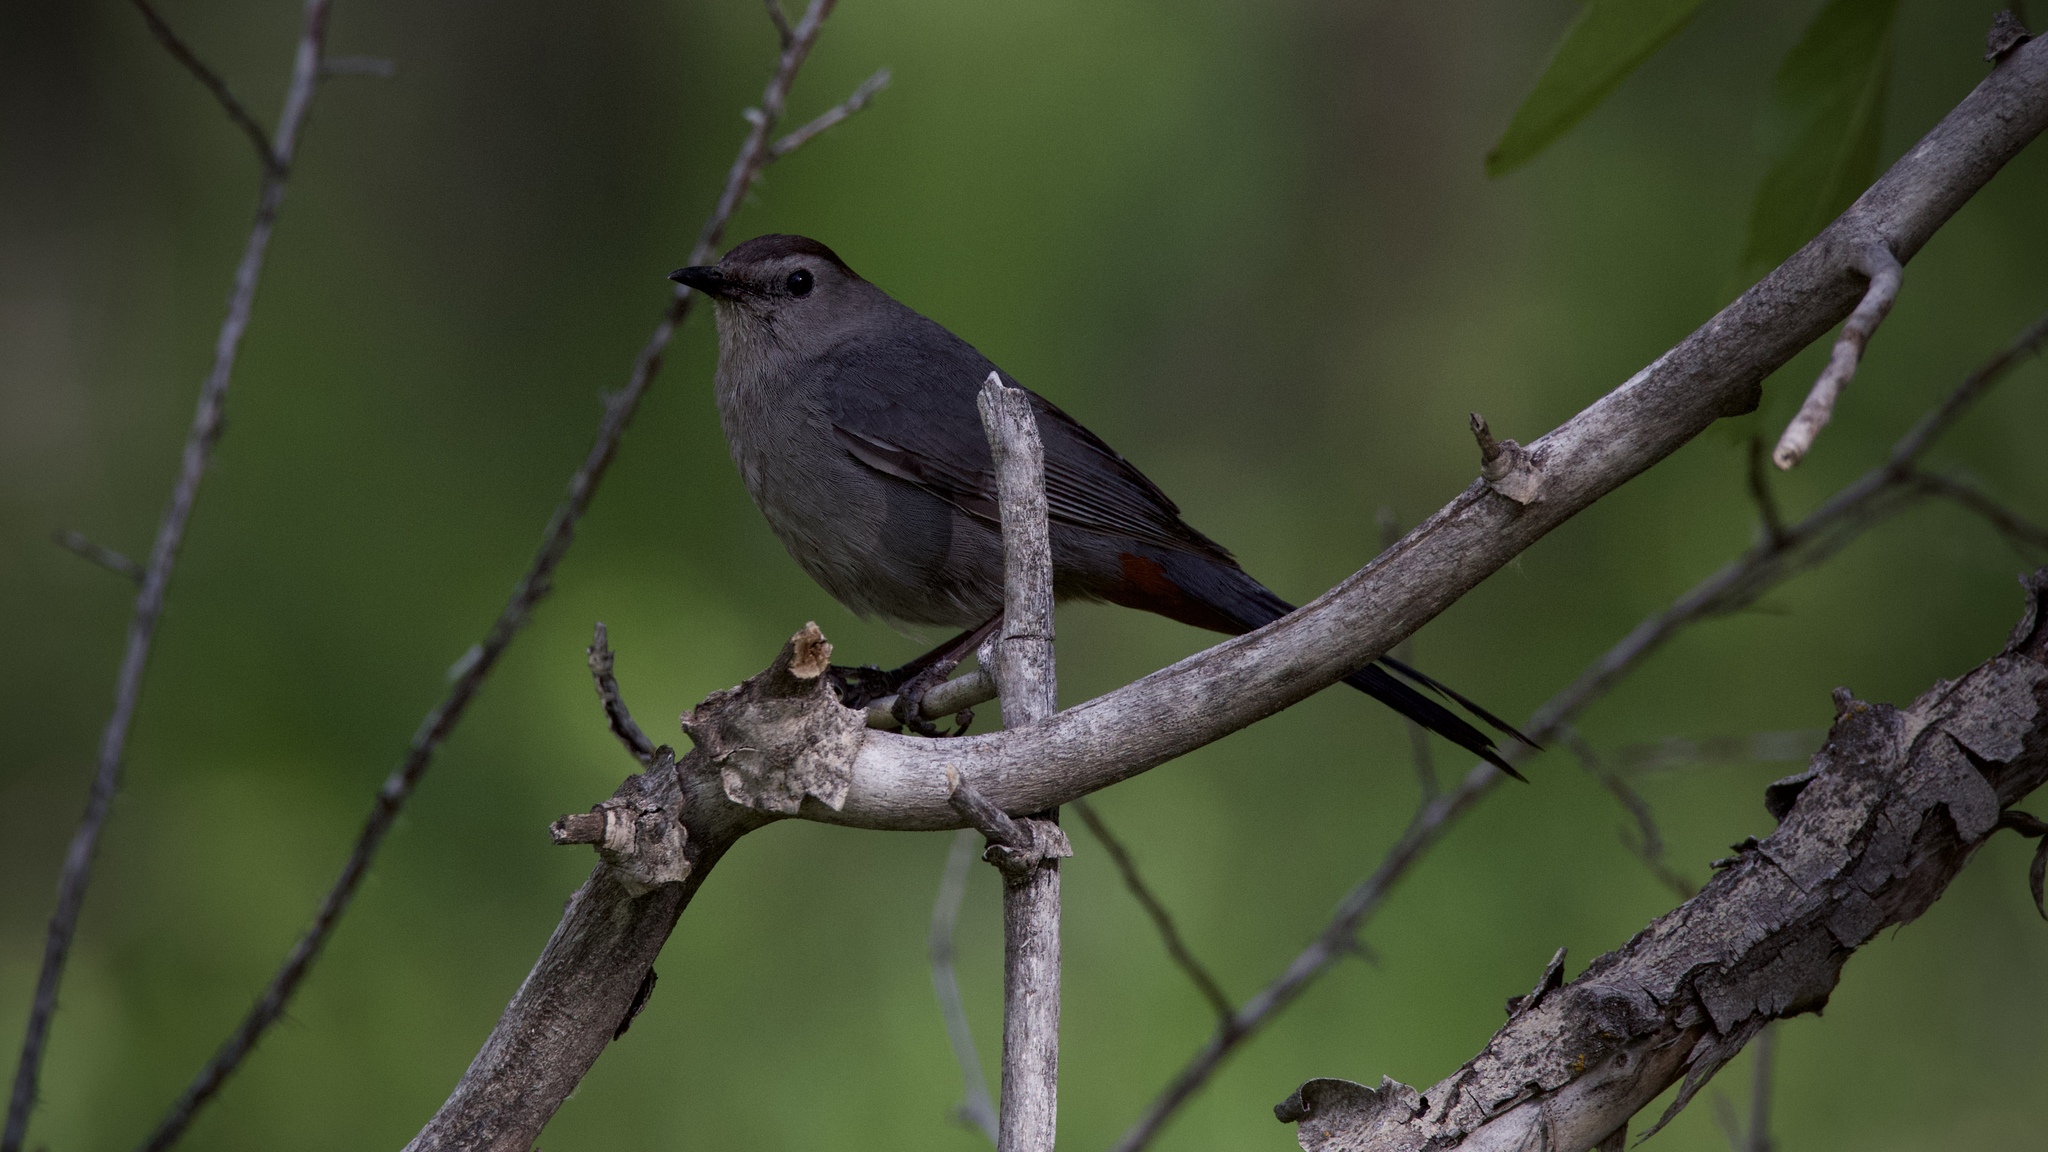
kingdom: Animalia
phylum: Chordata
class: Aves
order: Passeriformes
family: Mimidae
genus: Dumetella
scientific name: Dumetella carolinensis
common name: Gray catbird
